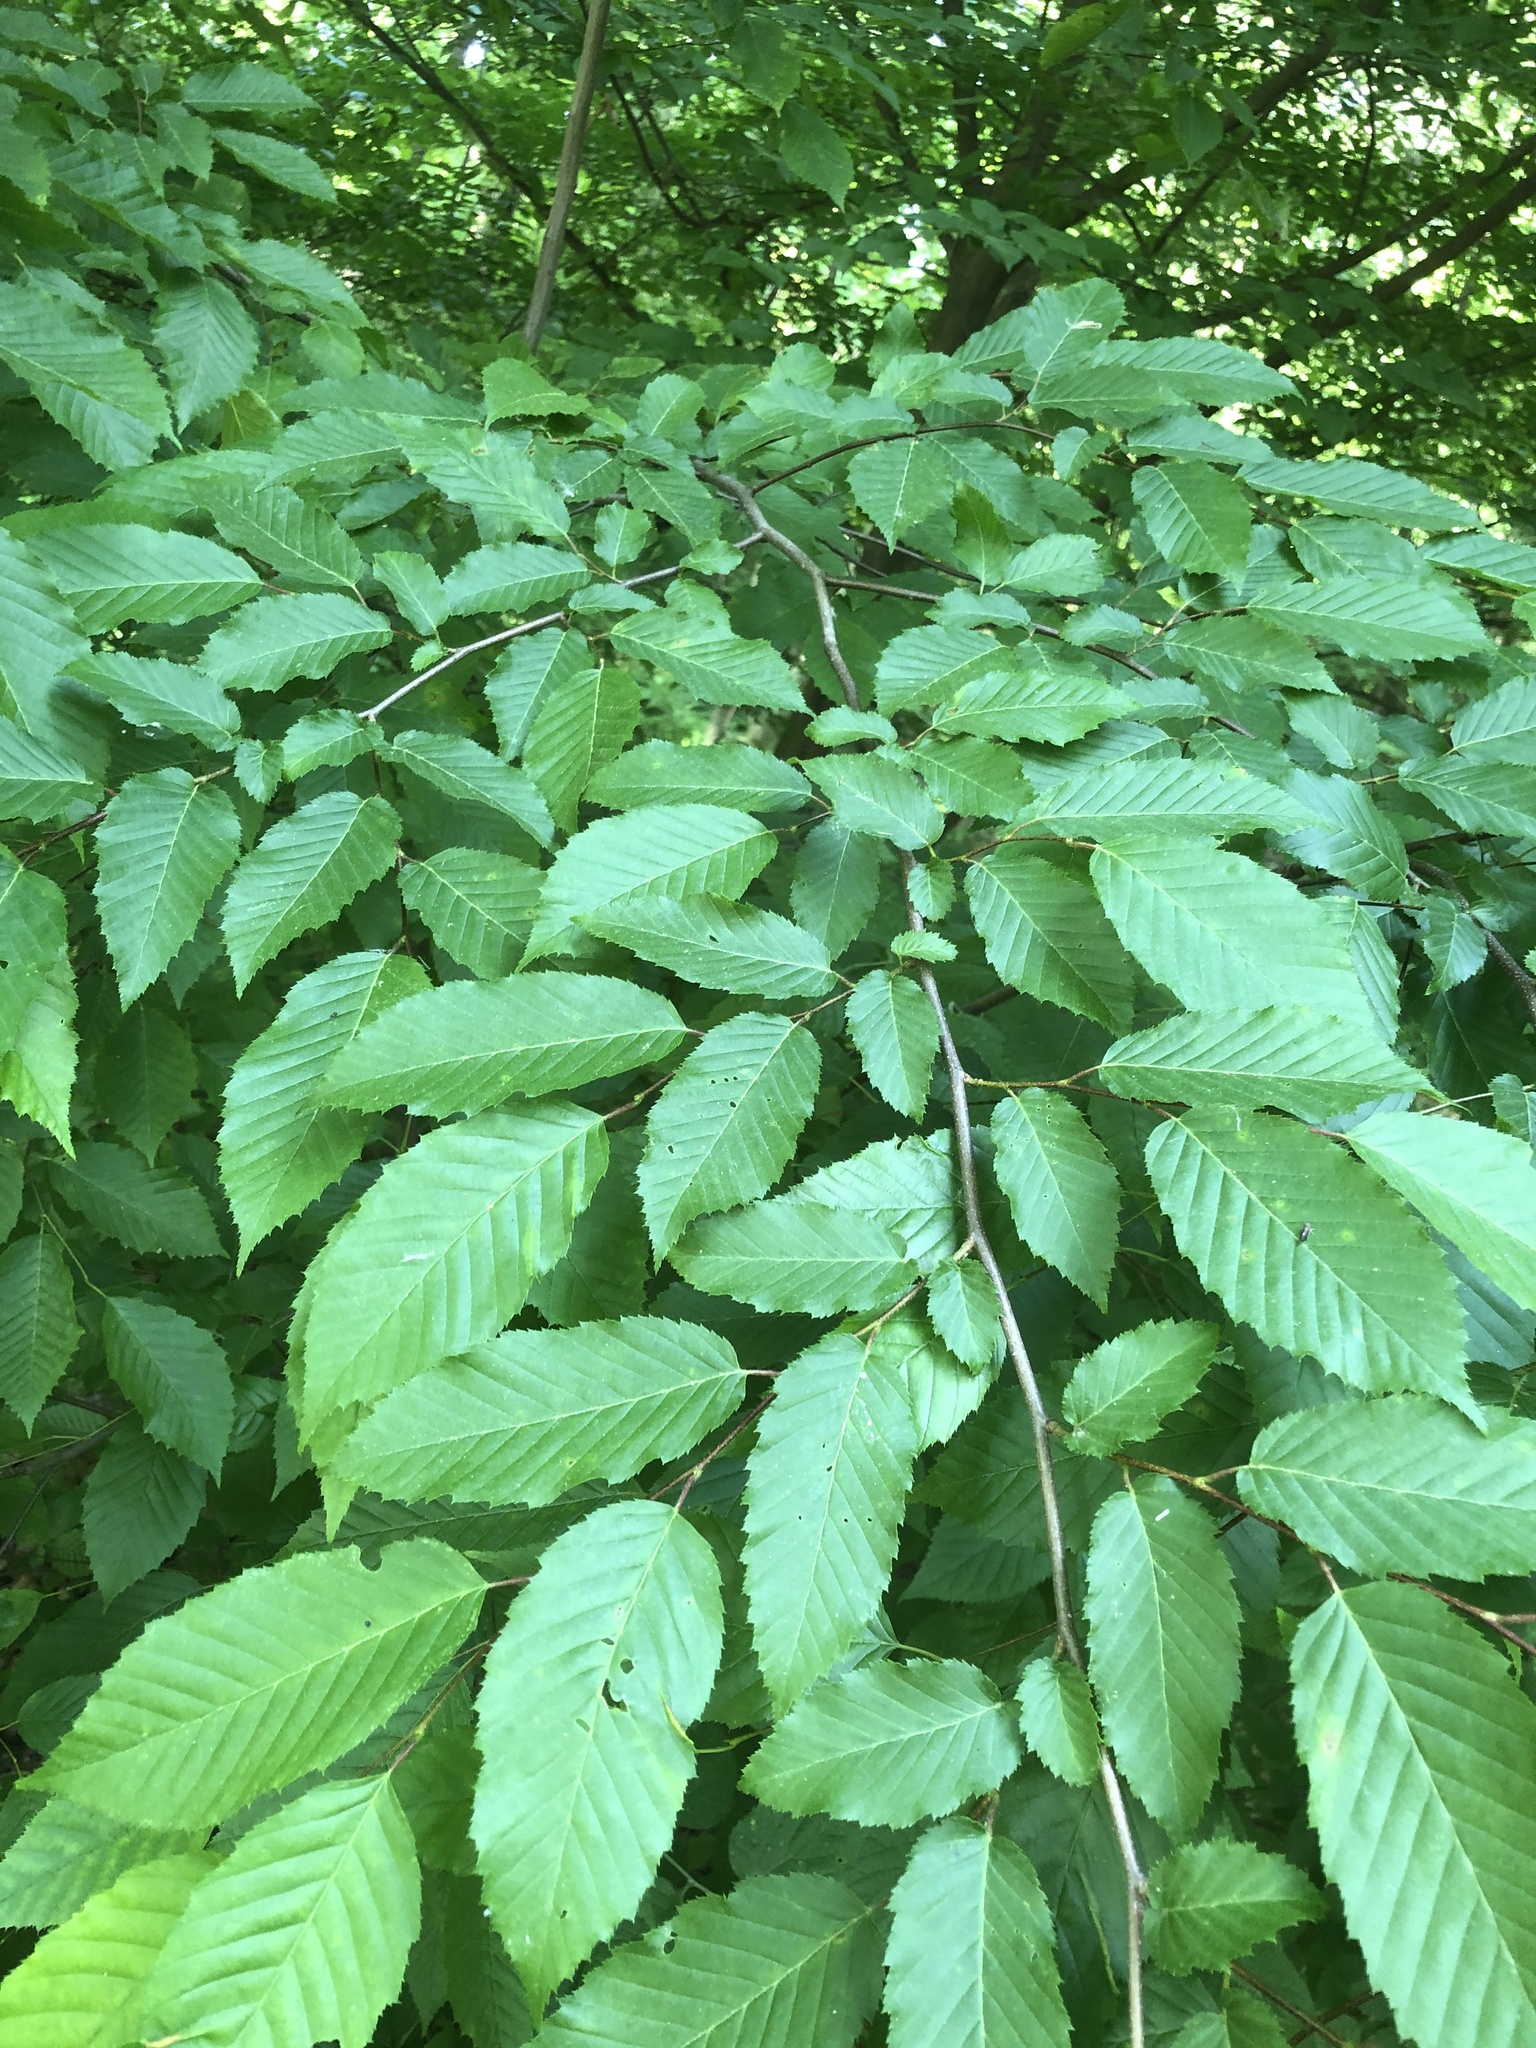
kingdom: Plantae
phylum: Tracheophyta
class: Magnoliopsida
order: Fagales
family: Betulaceae
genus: Carpinus
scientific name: Carpinus caroliniana
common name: American hornbeam
